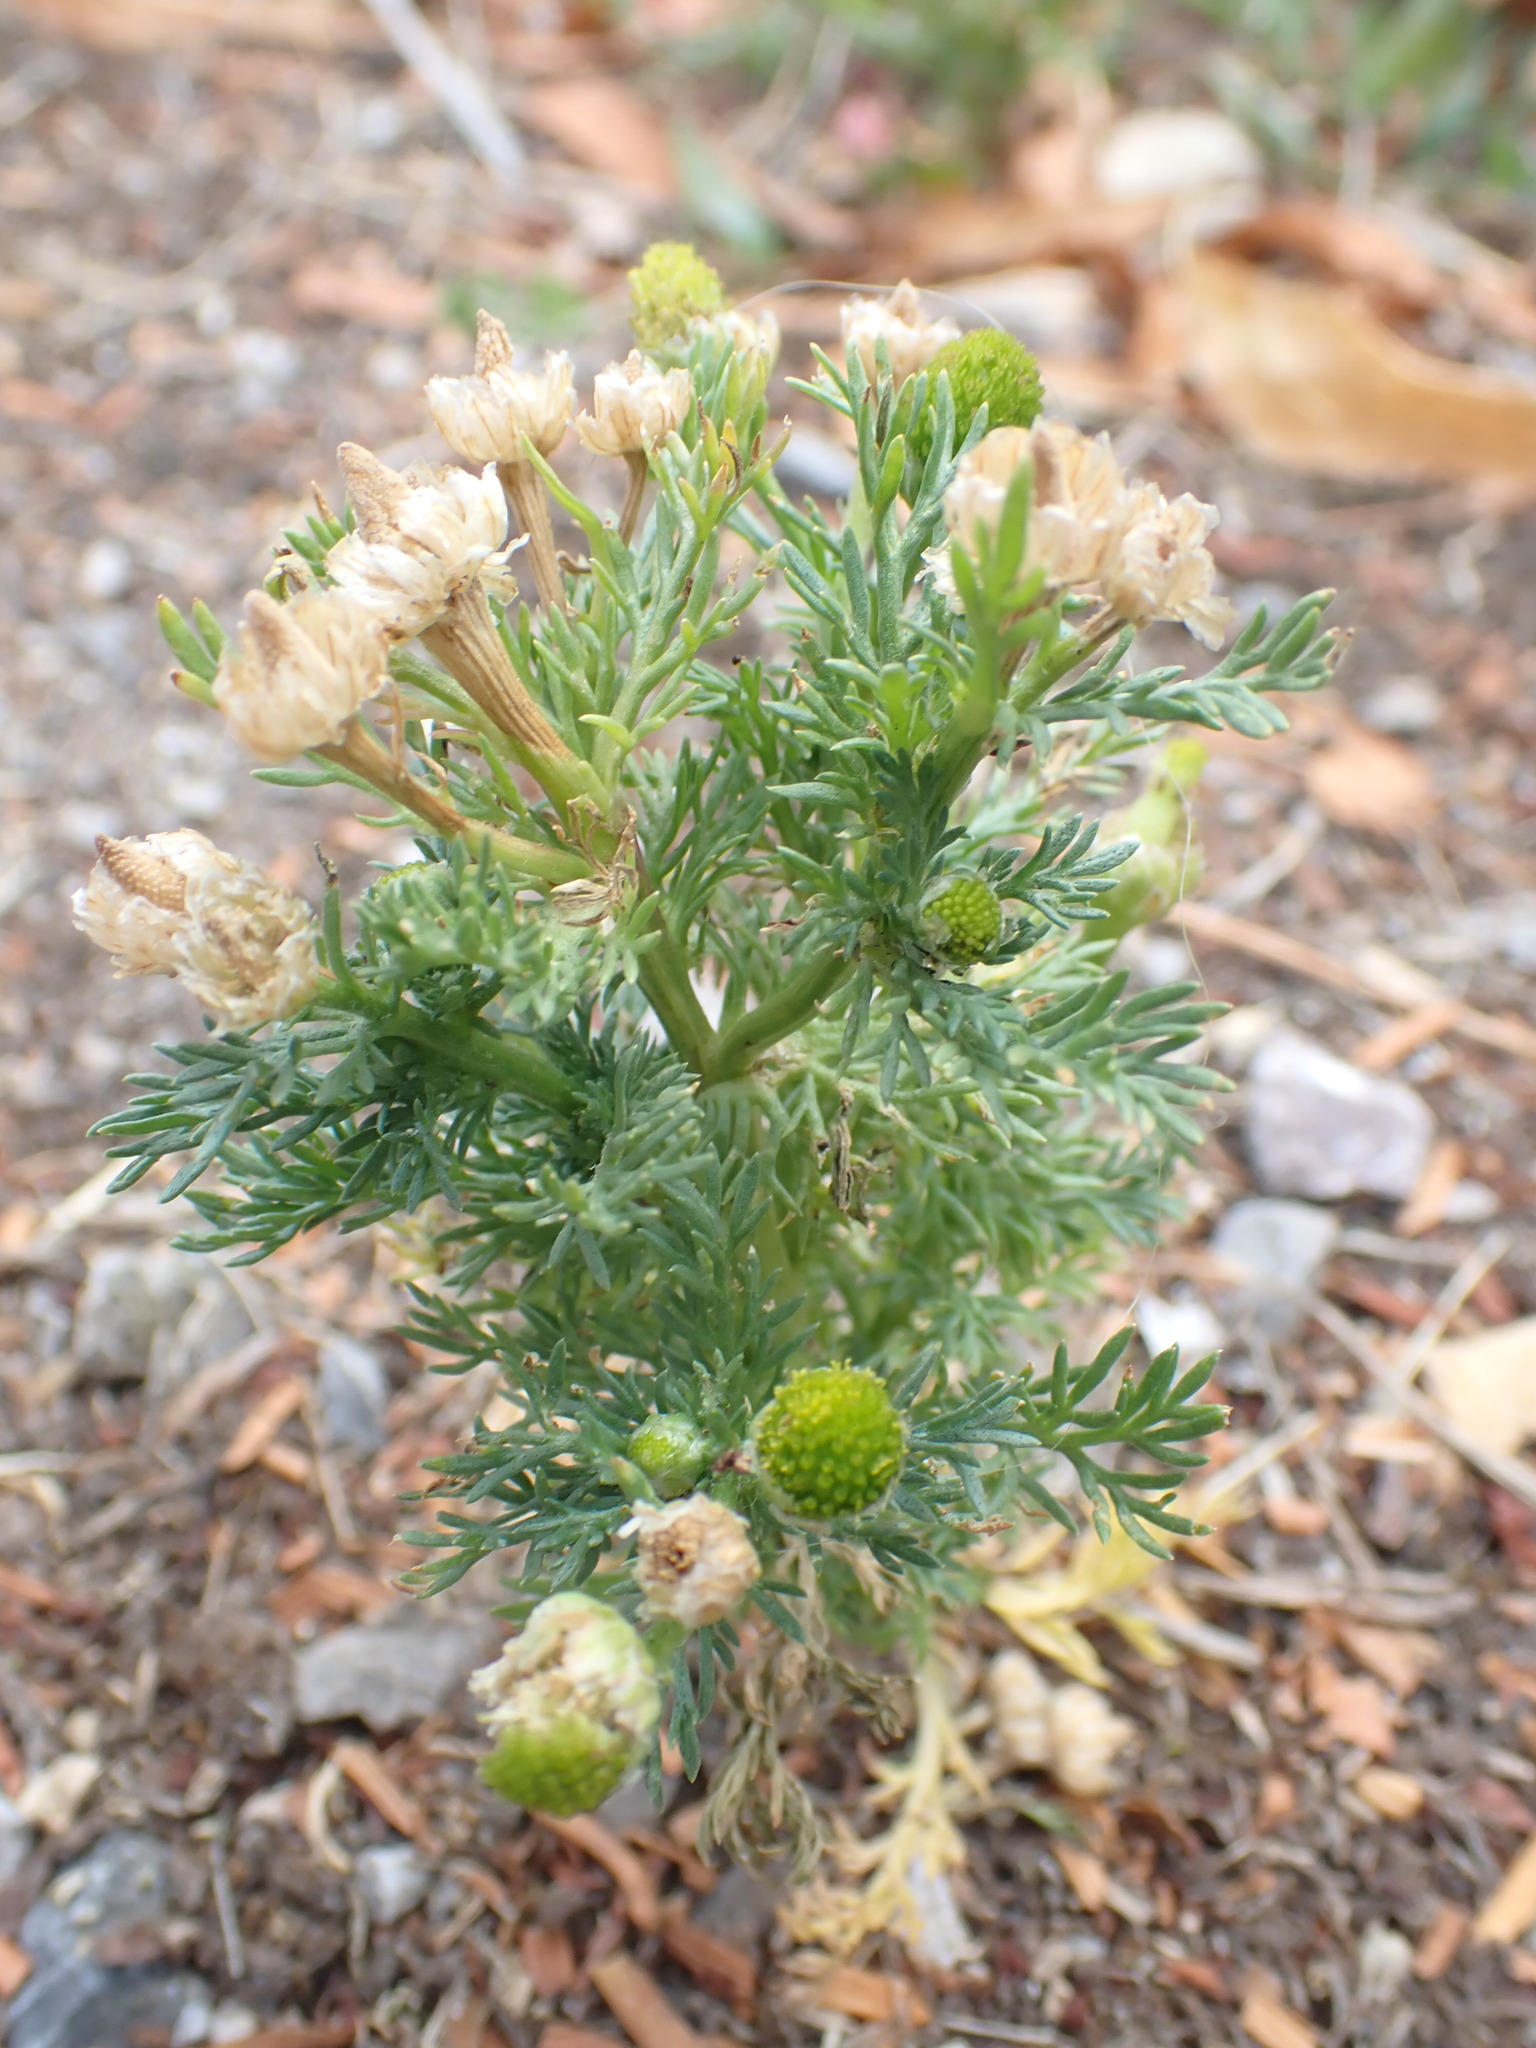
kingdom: Plantae
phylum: Tracheophyta
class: Magnoliopsida
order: Asterales
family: Asteraceae
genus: Matricaria
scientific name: Matricaria discoidea
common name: Disc mayweed
